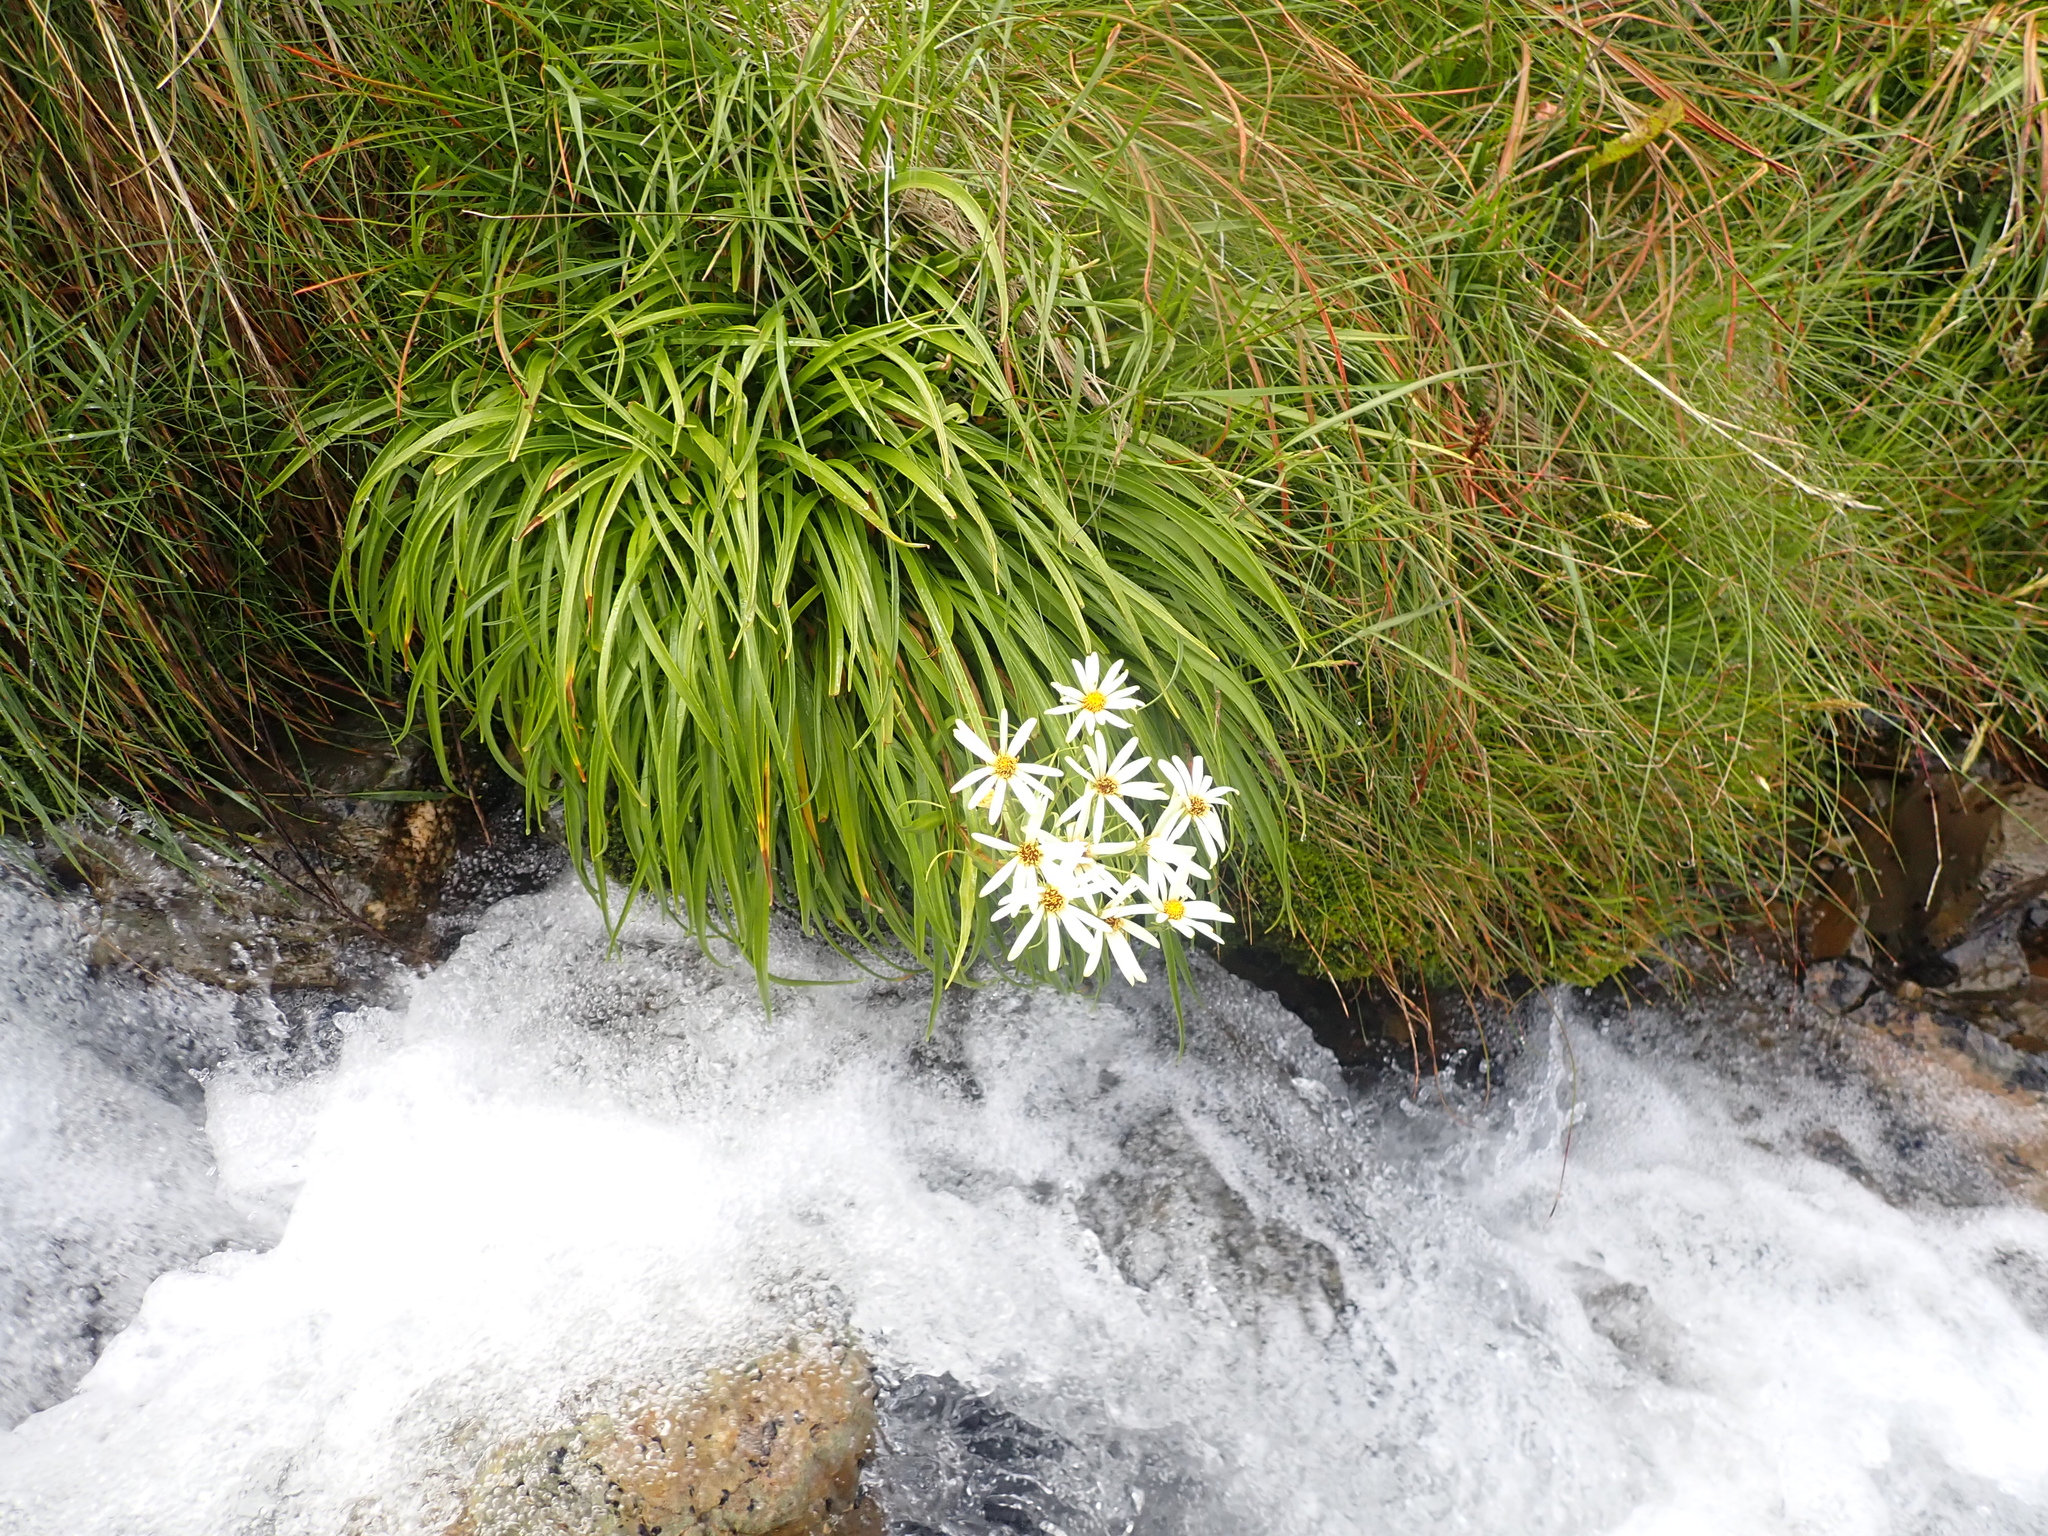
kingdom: Plantae
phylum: Tracheophyta
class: Magnoliopsida
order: Asterales
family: Asteraceae
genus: Dolichoglottis
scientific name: Dolichoglottis scorzoneroides
